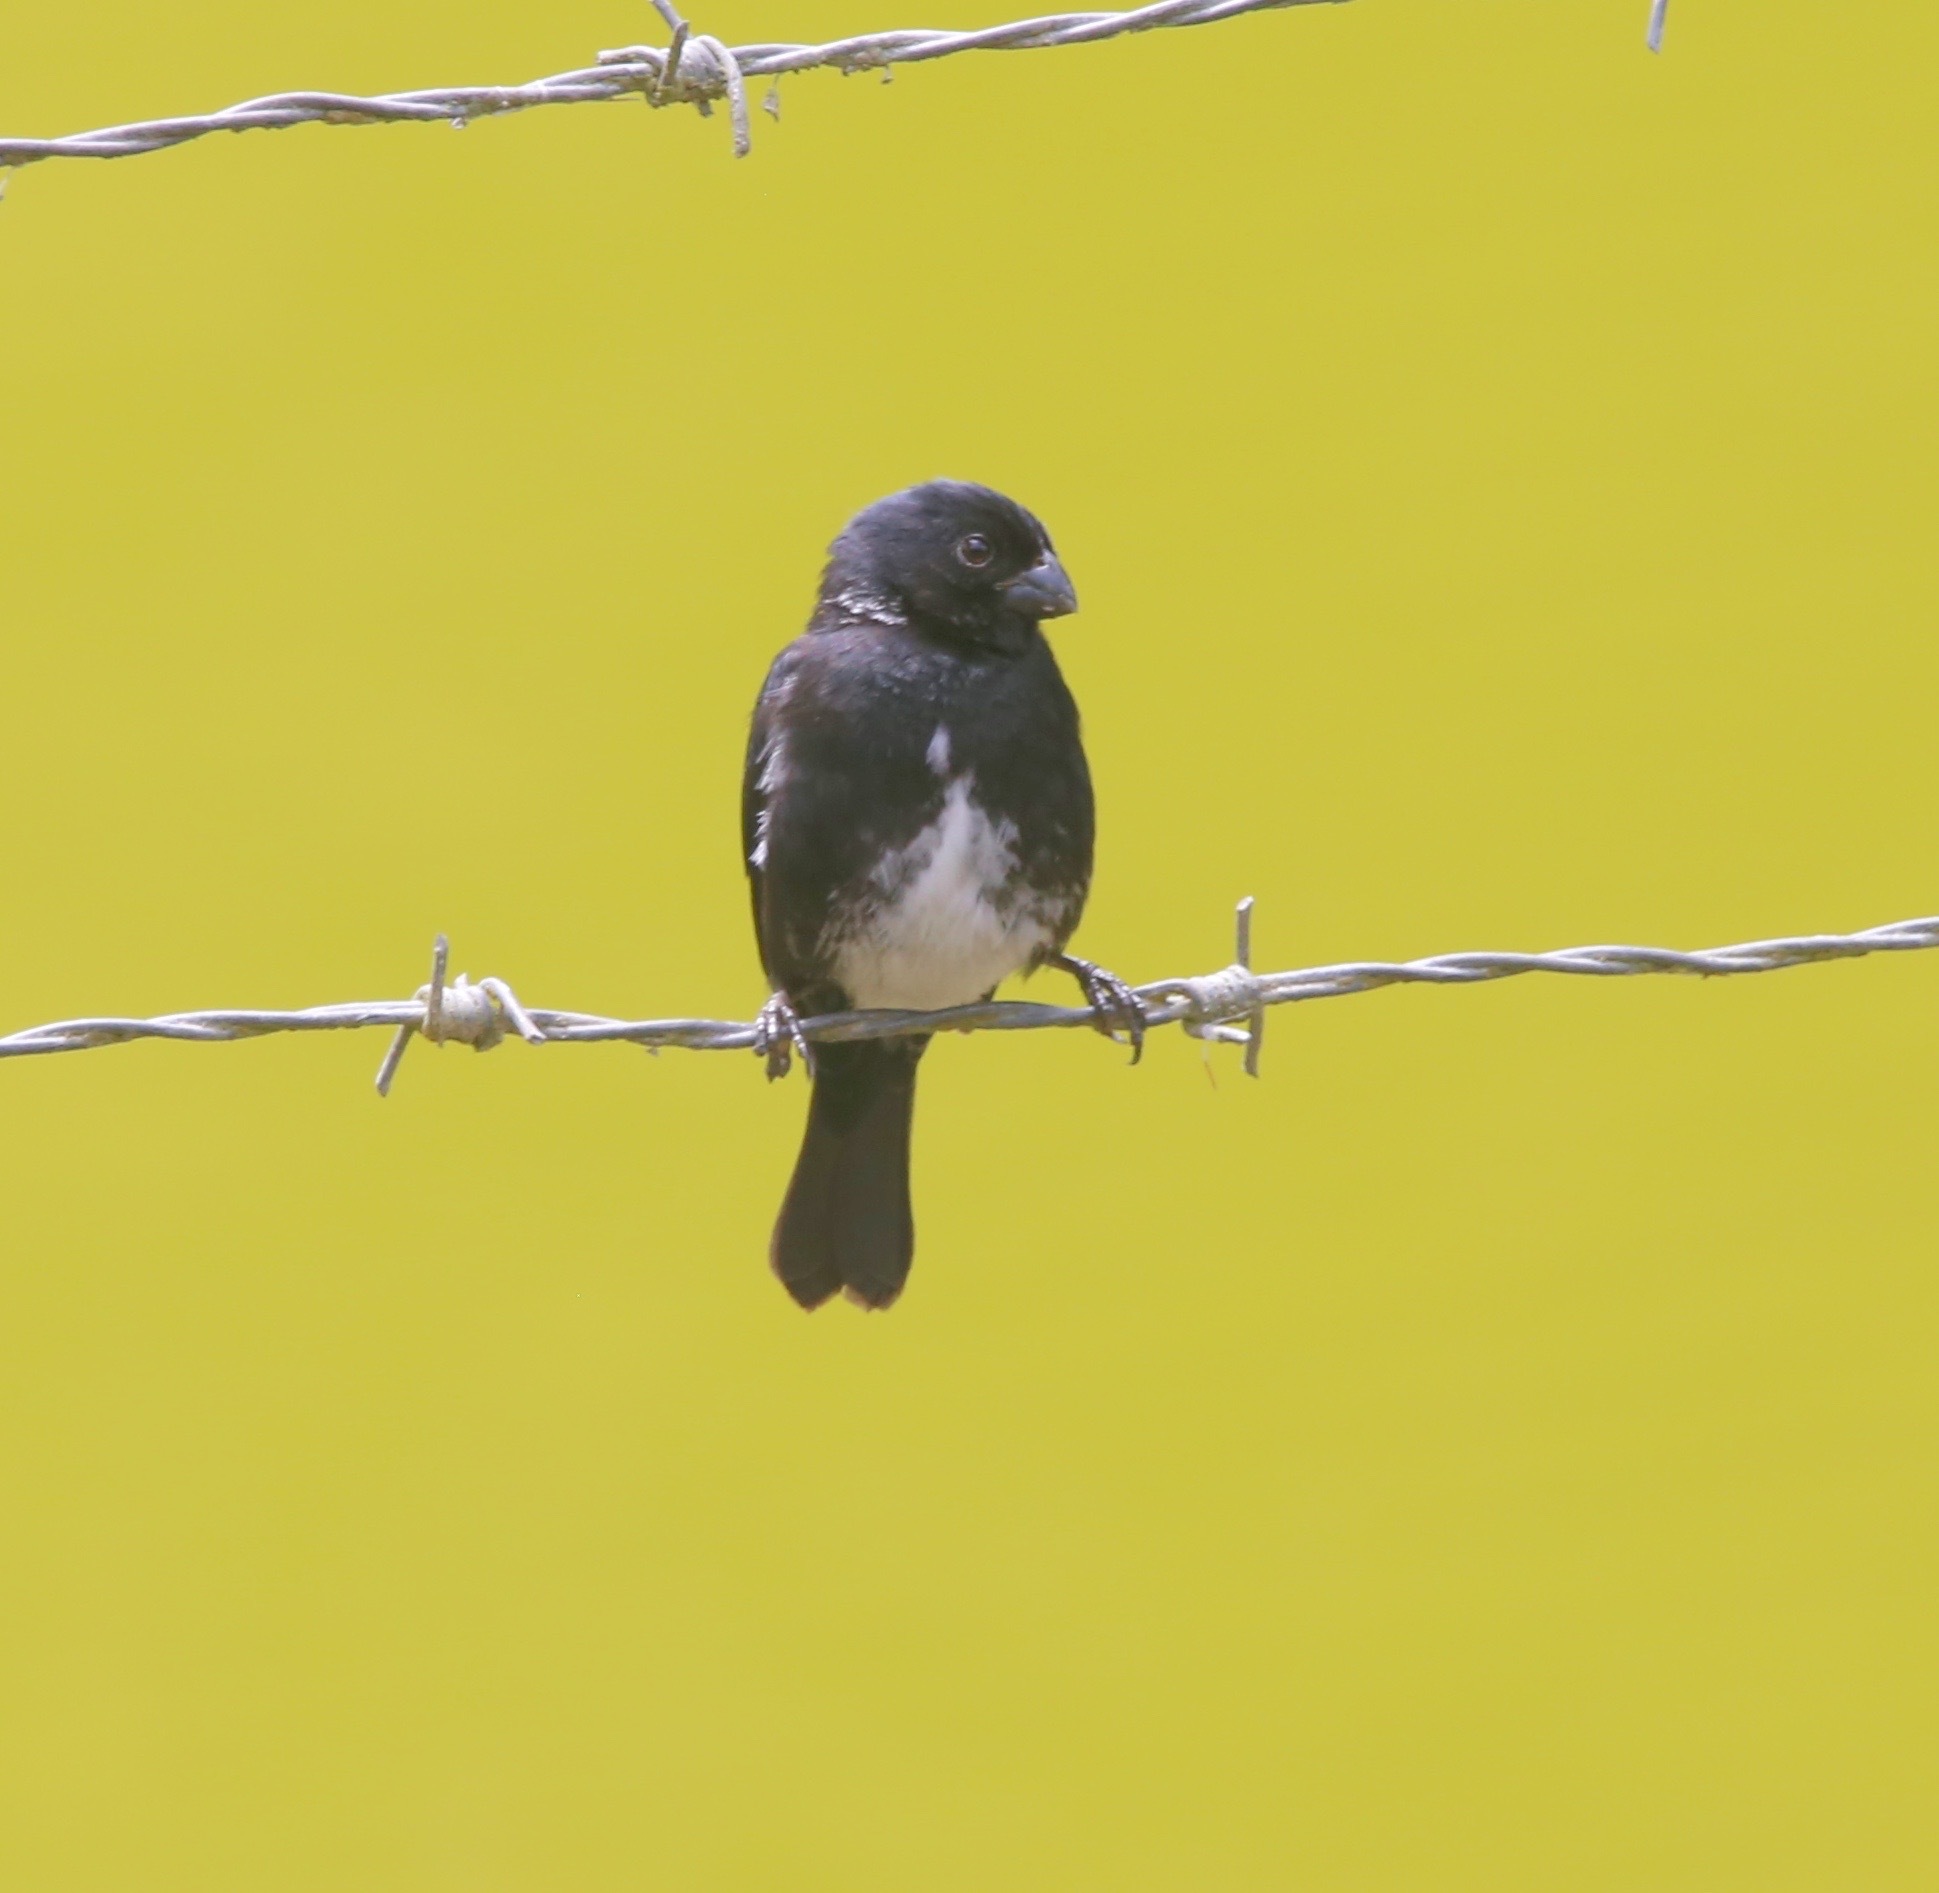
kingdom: Animalia
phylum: Chordata
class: Aves
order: Passeriformes
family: Thraupidae
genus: Sporophila
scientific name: Sporophila corvina
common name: Variable seedeater
